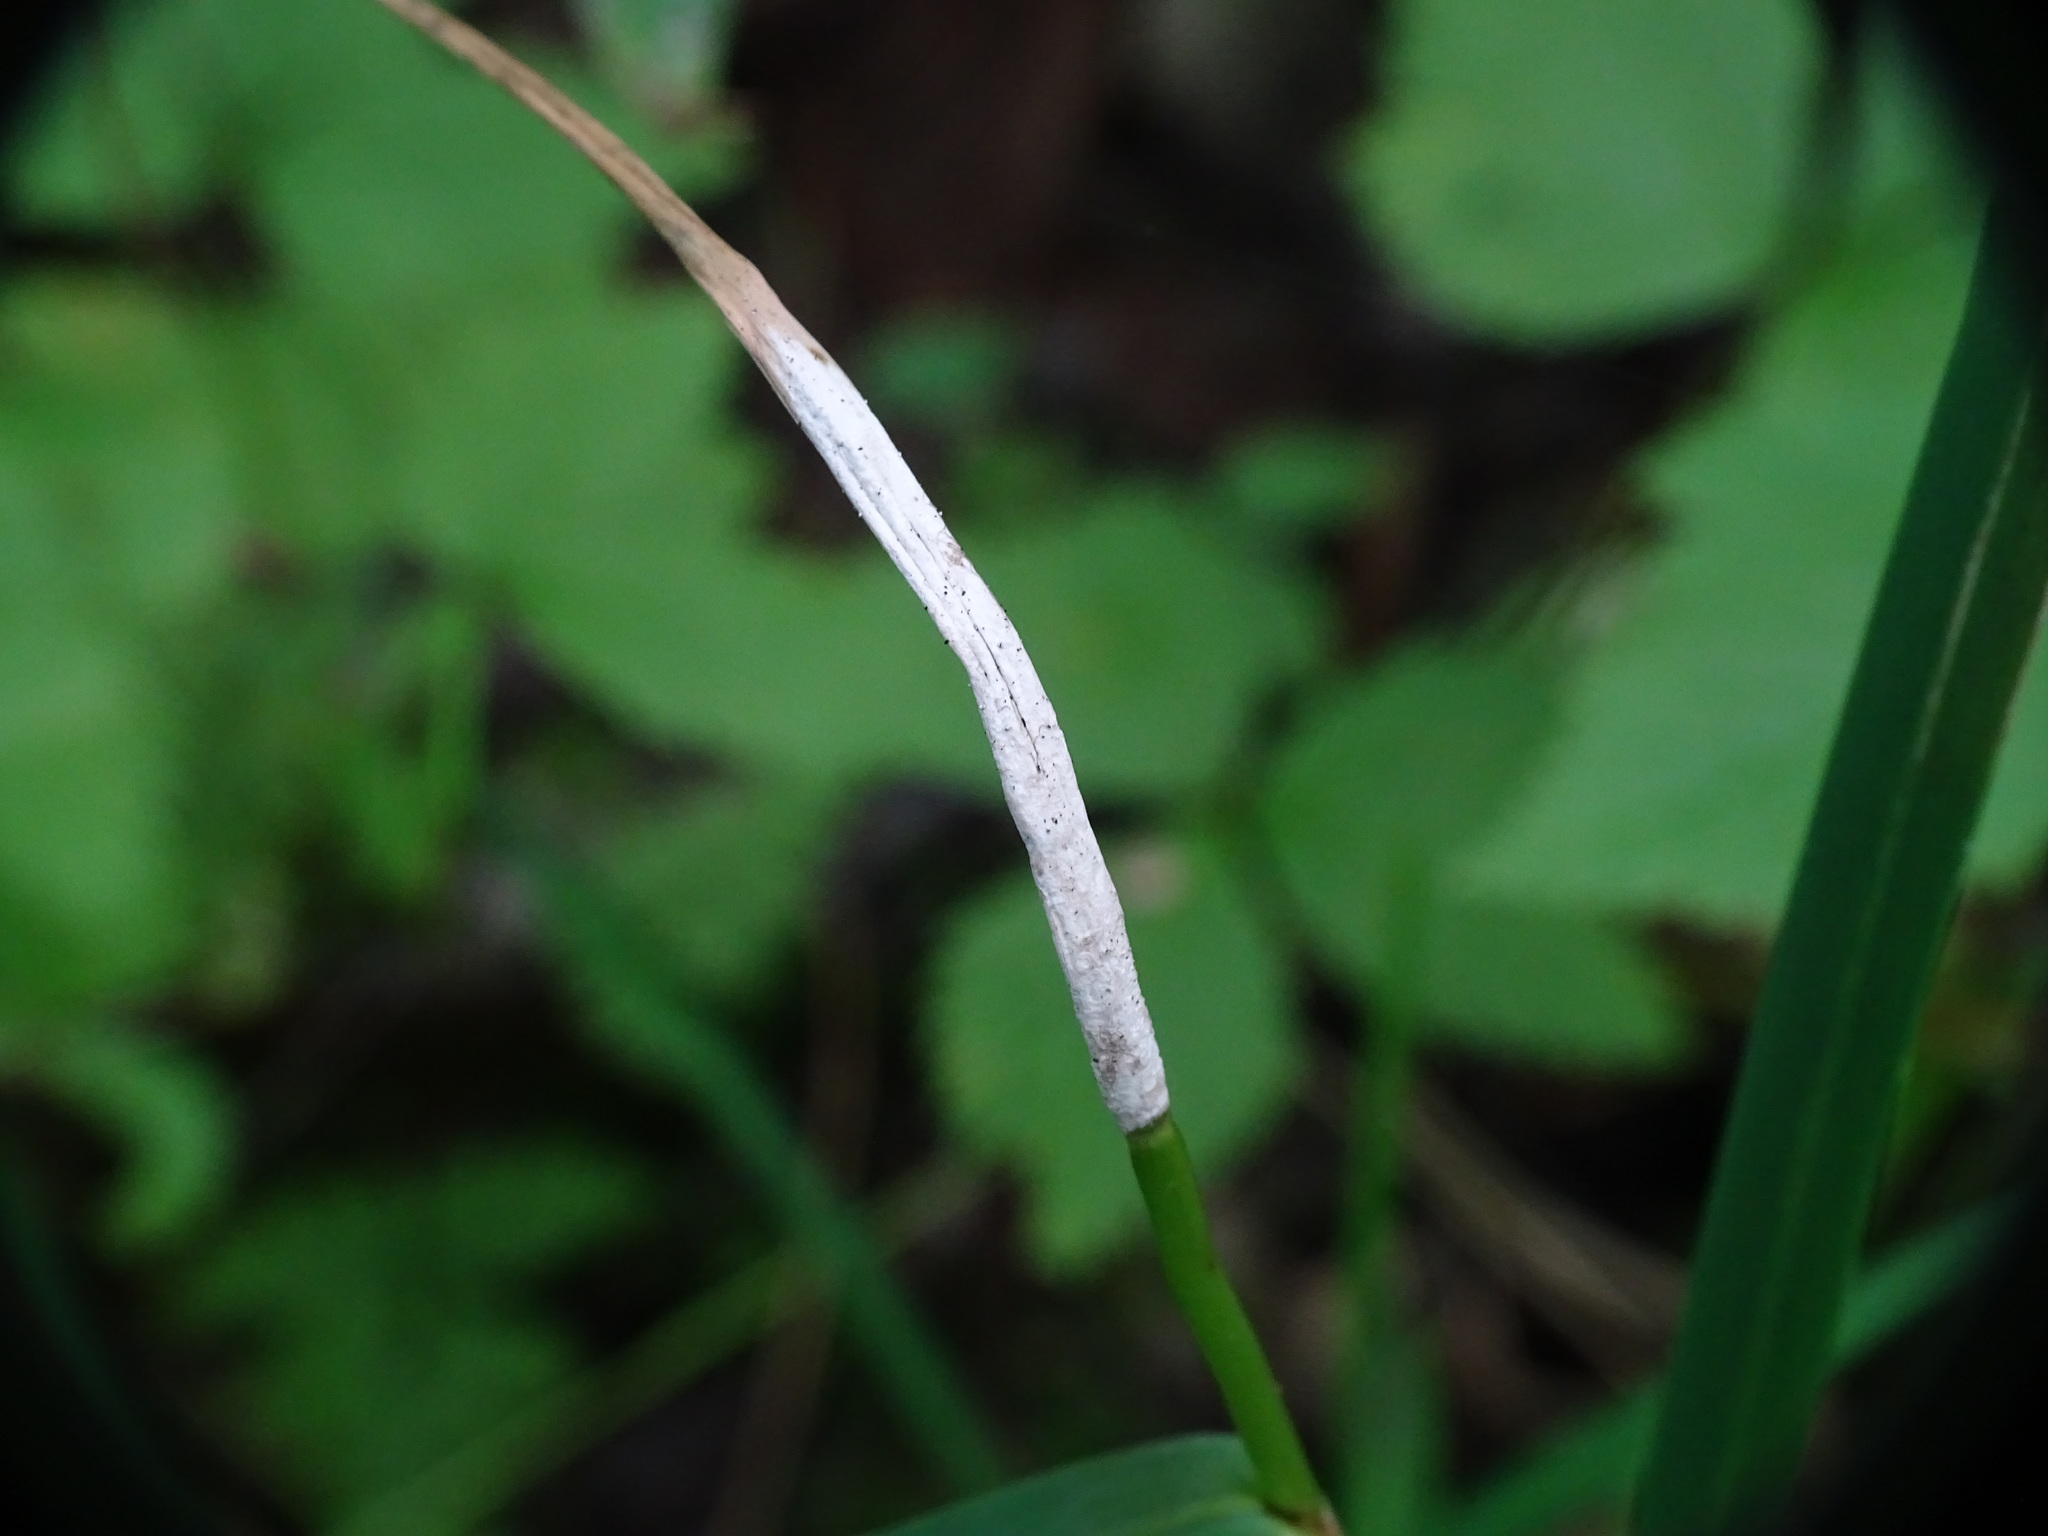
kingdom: Fungi
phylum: Ascomycota
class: Sordariomycetes
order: Hypocreales
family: Clavicipitaceae
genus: Epichloe
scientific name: Epichloe glyceriae
